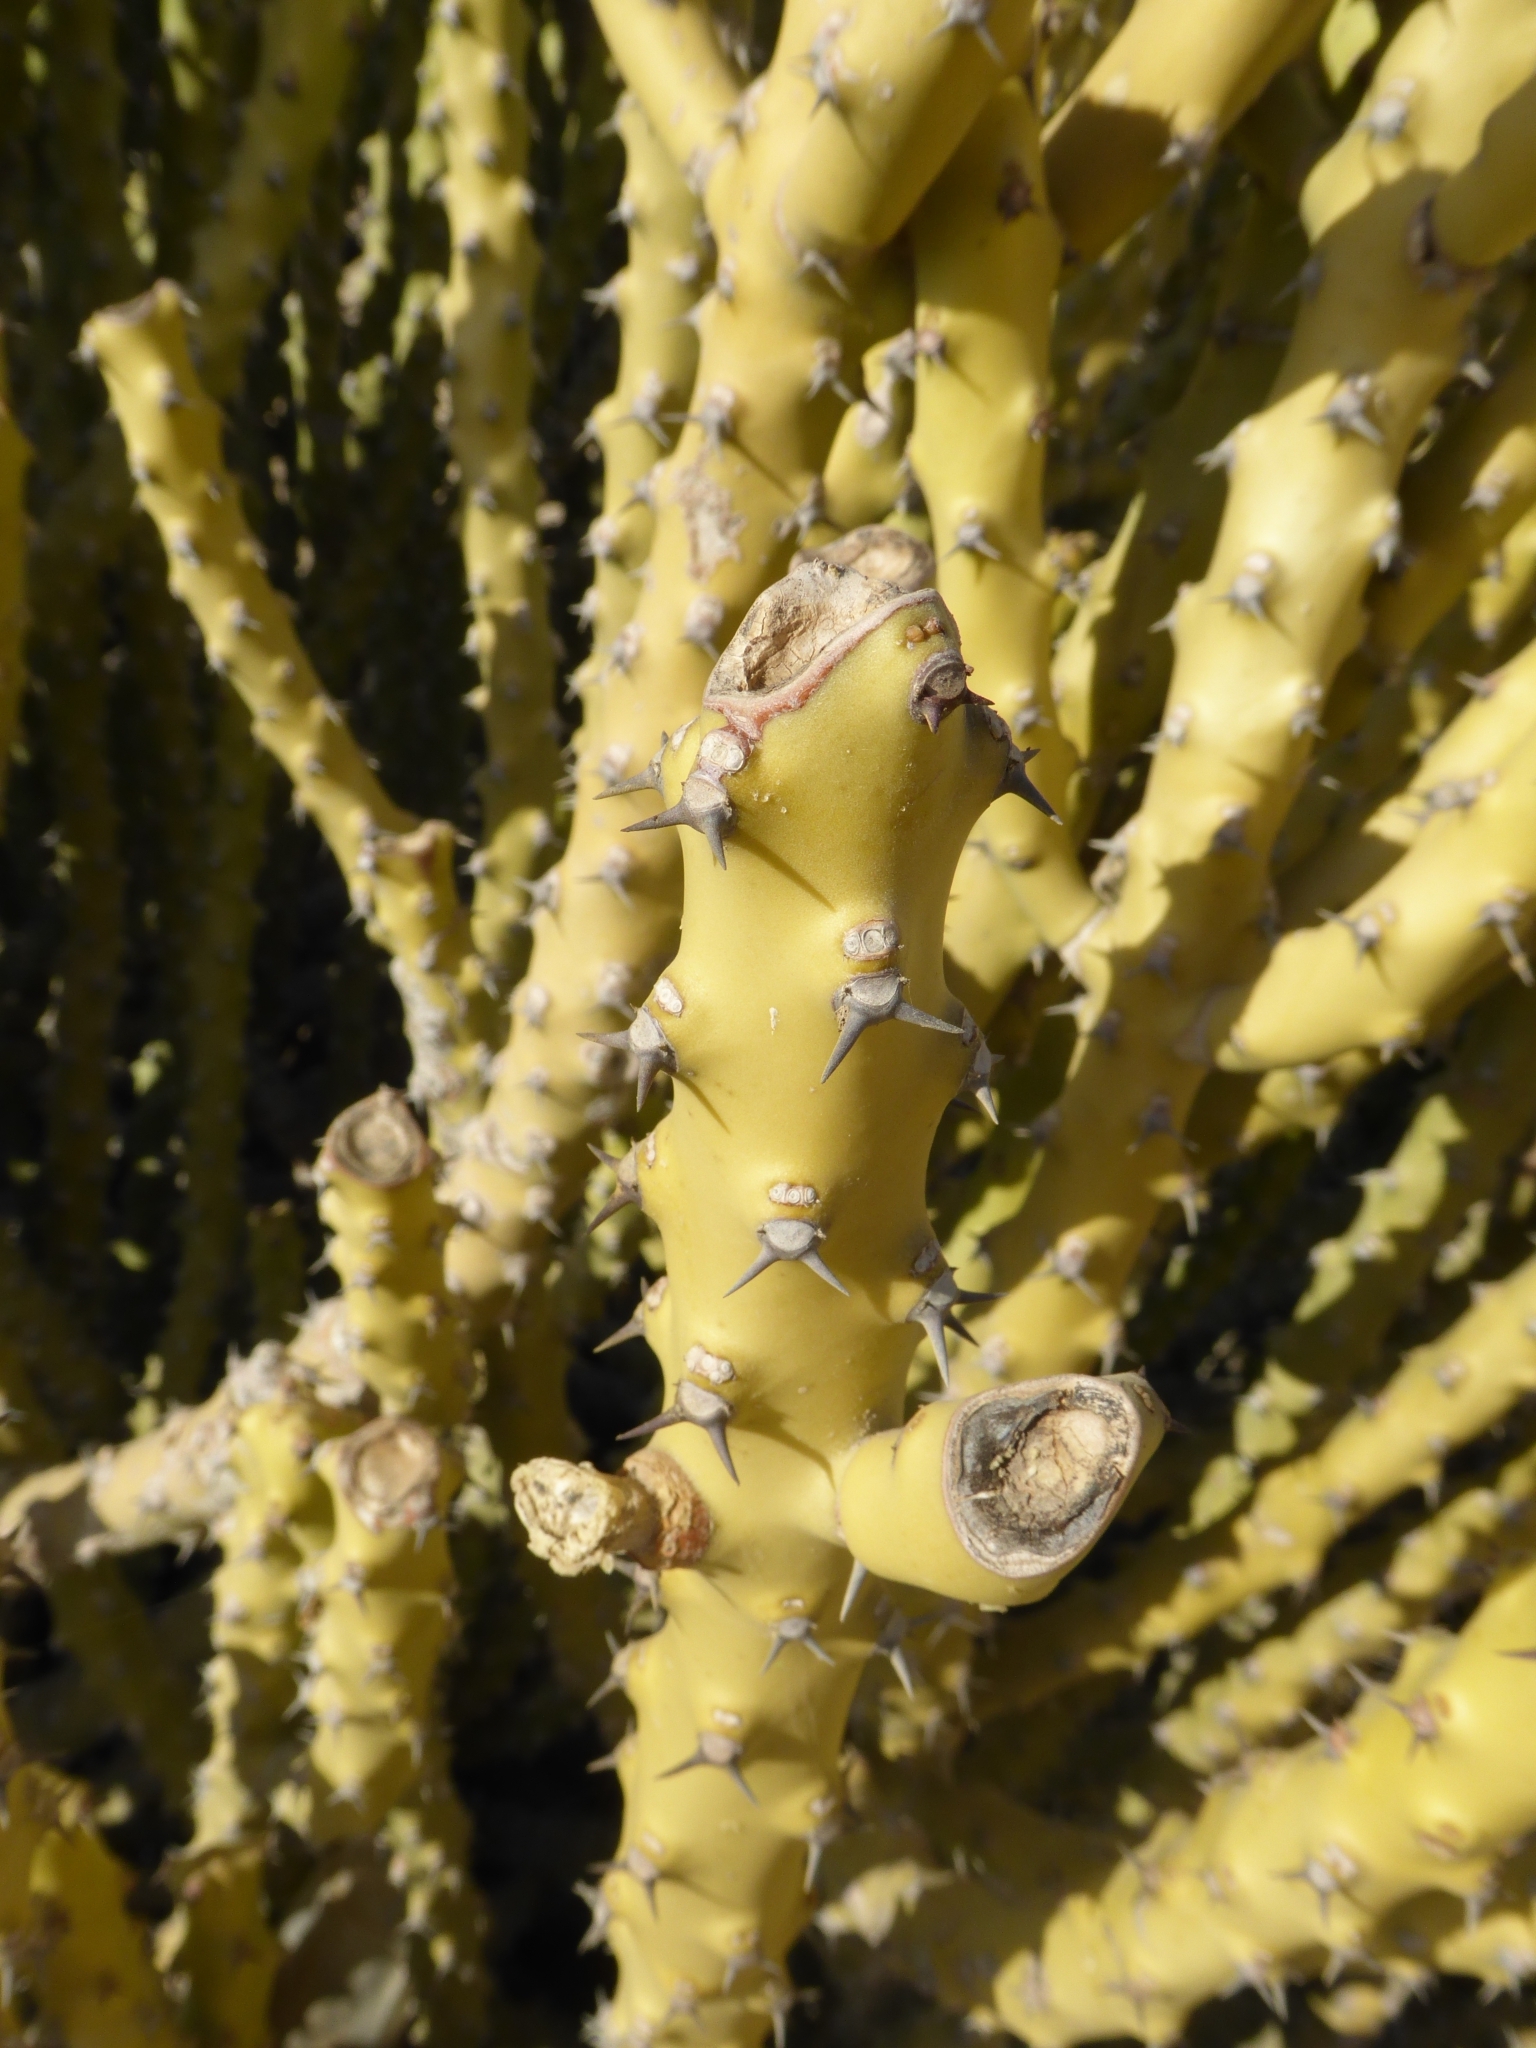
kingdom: Plantae
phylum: Tracheophyta
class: Magnoliopsida
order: Malpighiales
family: Euphorbiaceae
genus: Euphorbia
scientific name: Euphorbia caducifolia
